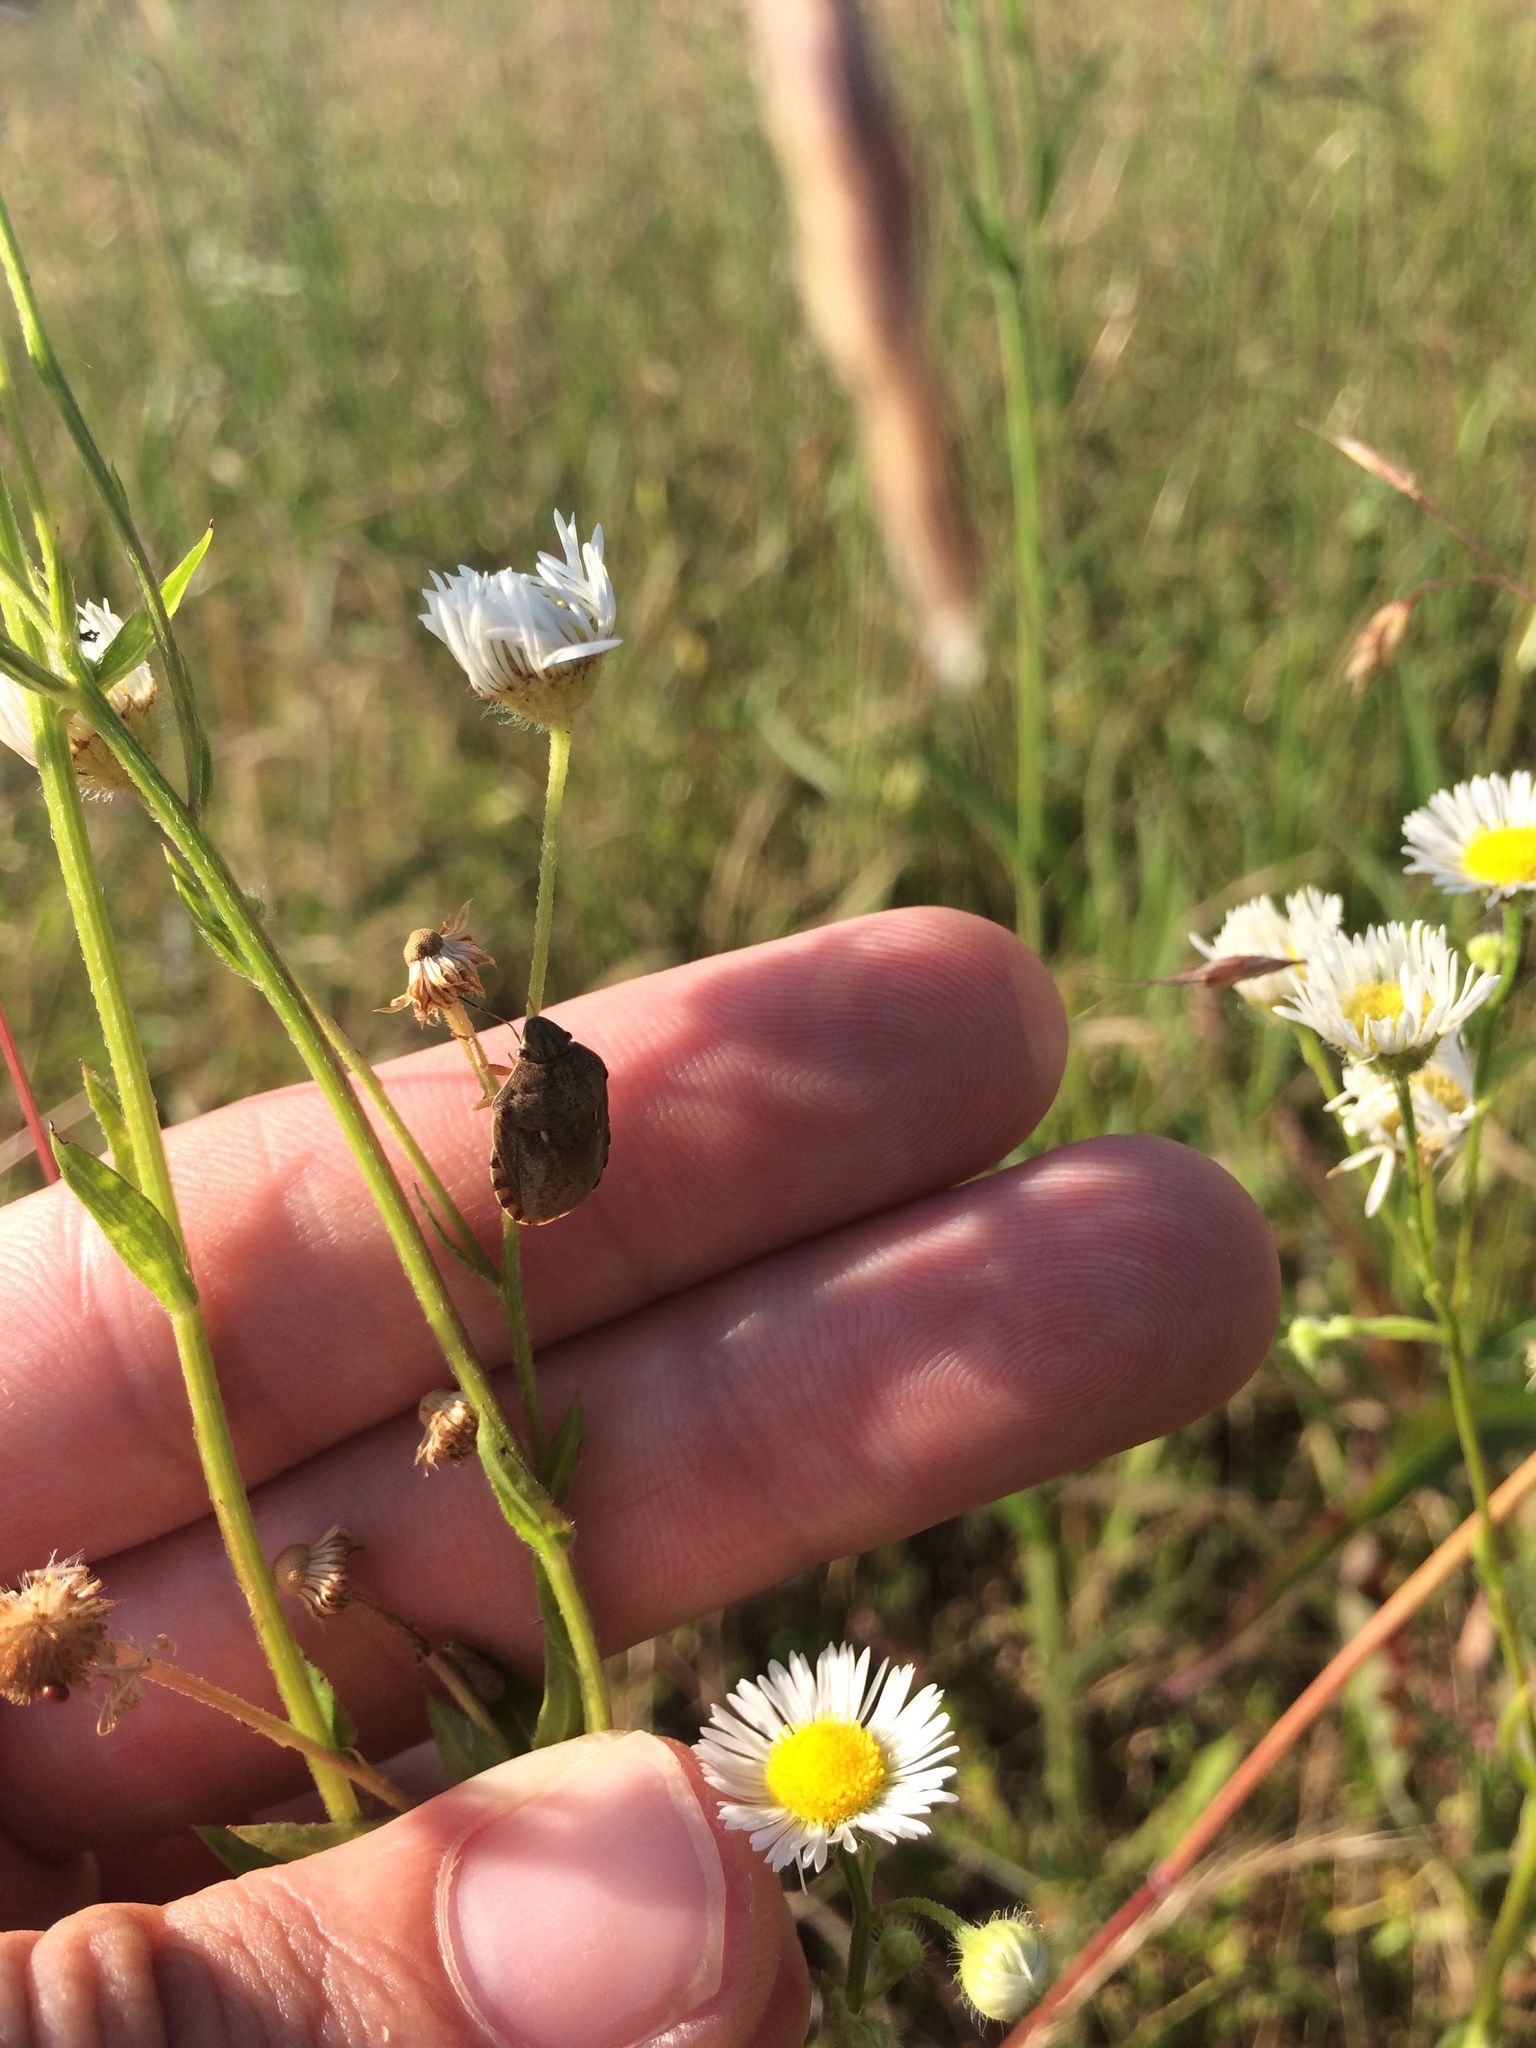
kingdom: Animalia
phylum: Arthropoda
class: Insecta
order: Hemiptera
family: Scutelleridae
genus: Eurygaster
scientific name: Eurygaster maura
